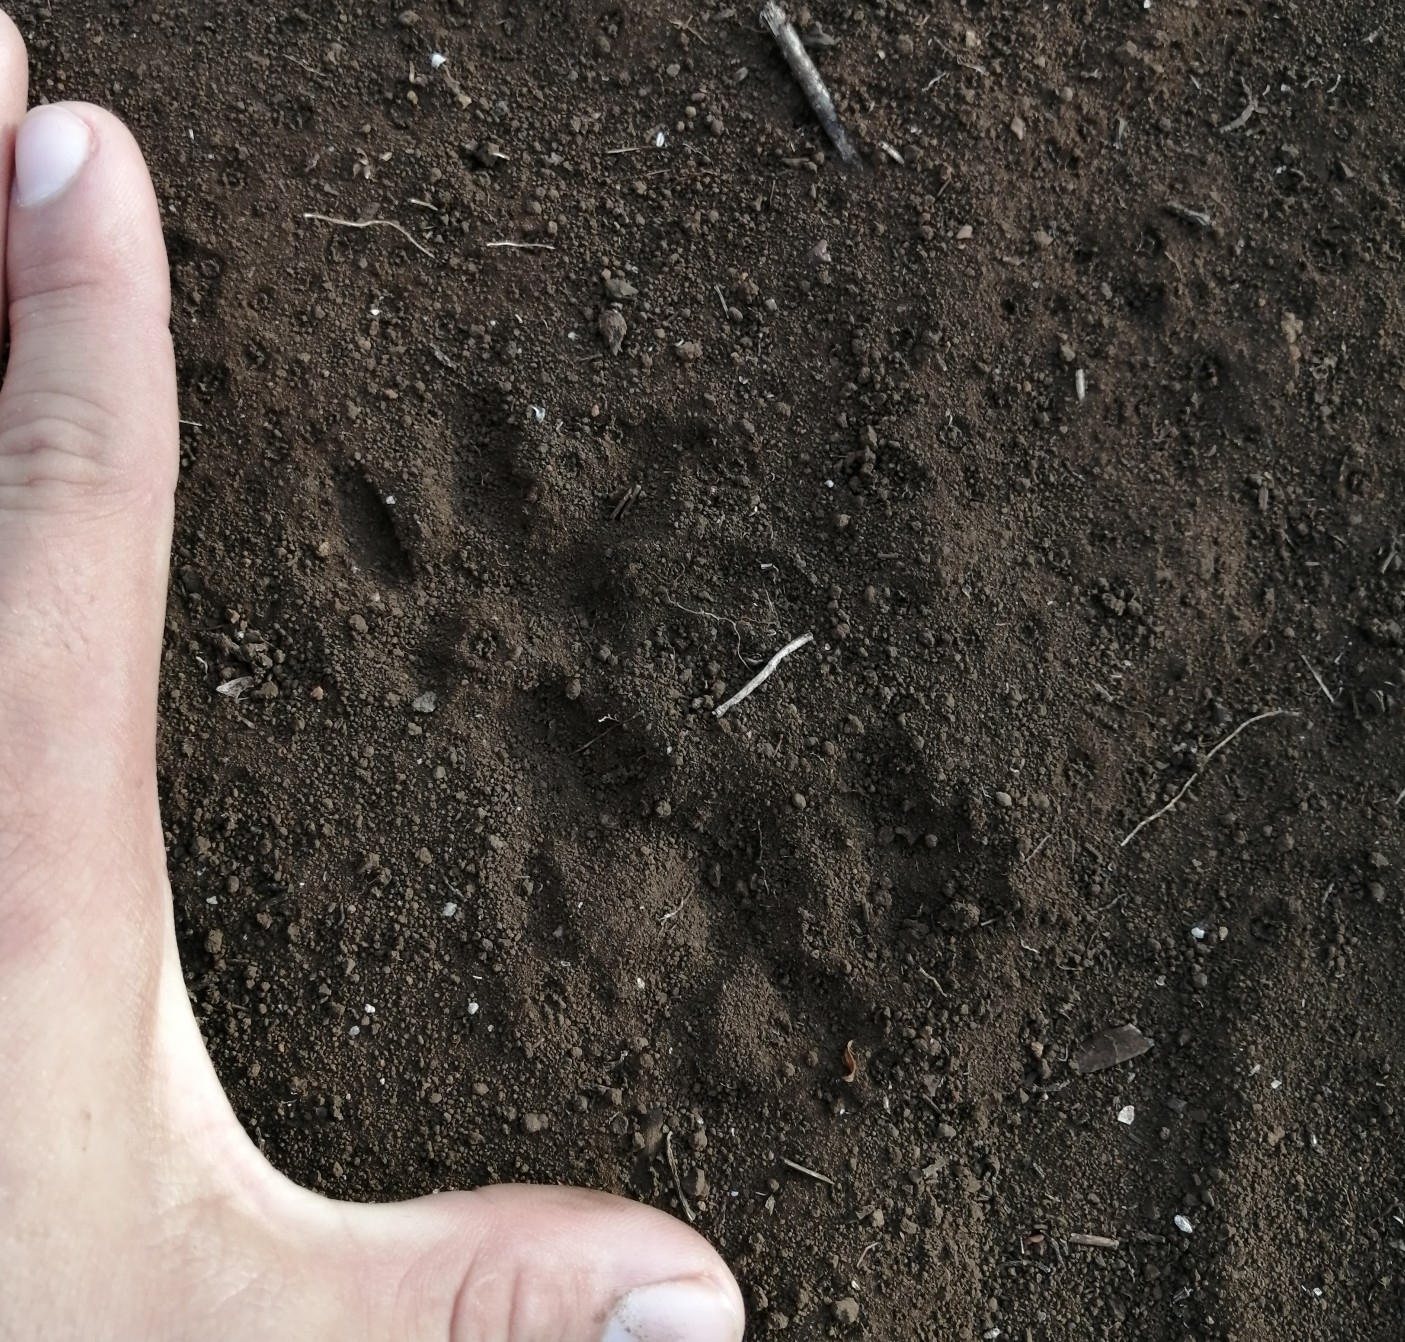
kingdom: Animalia
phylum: Chordata
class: Mammalia
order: Didelphimorphia
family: Didelphidae
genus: Didelphis
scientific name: Didelphis
